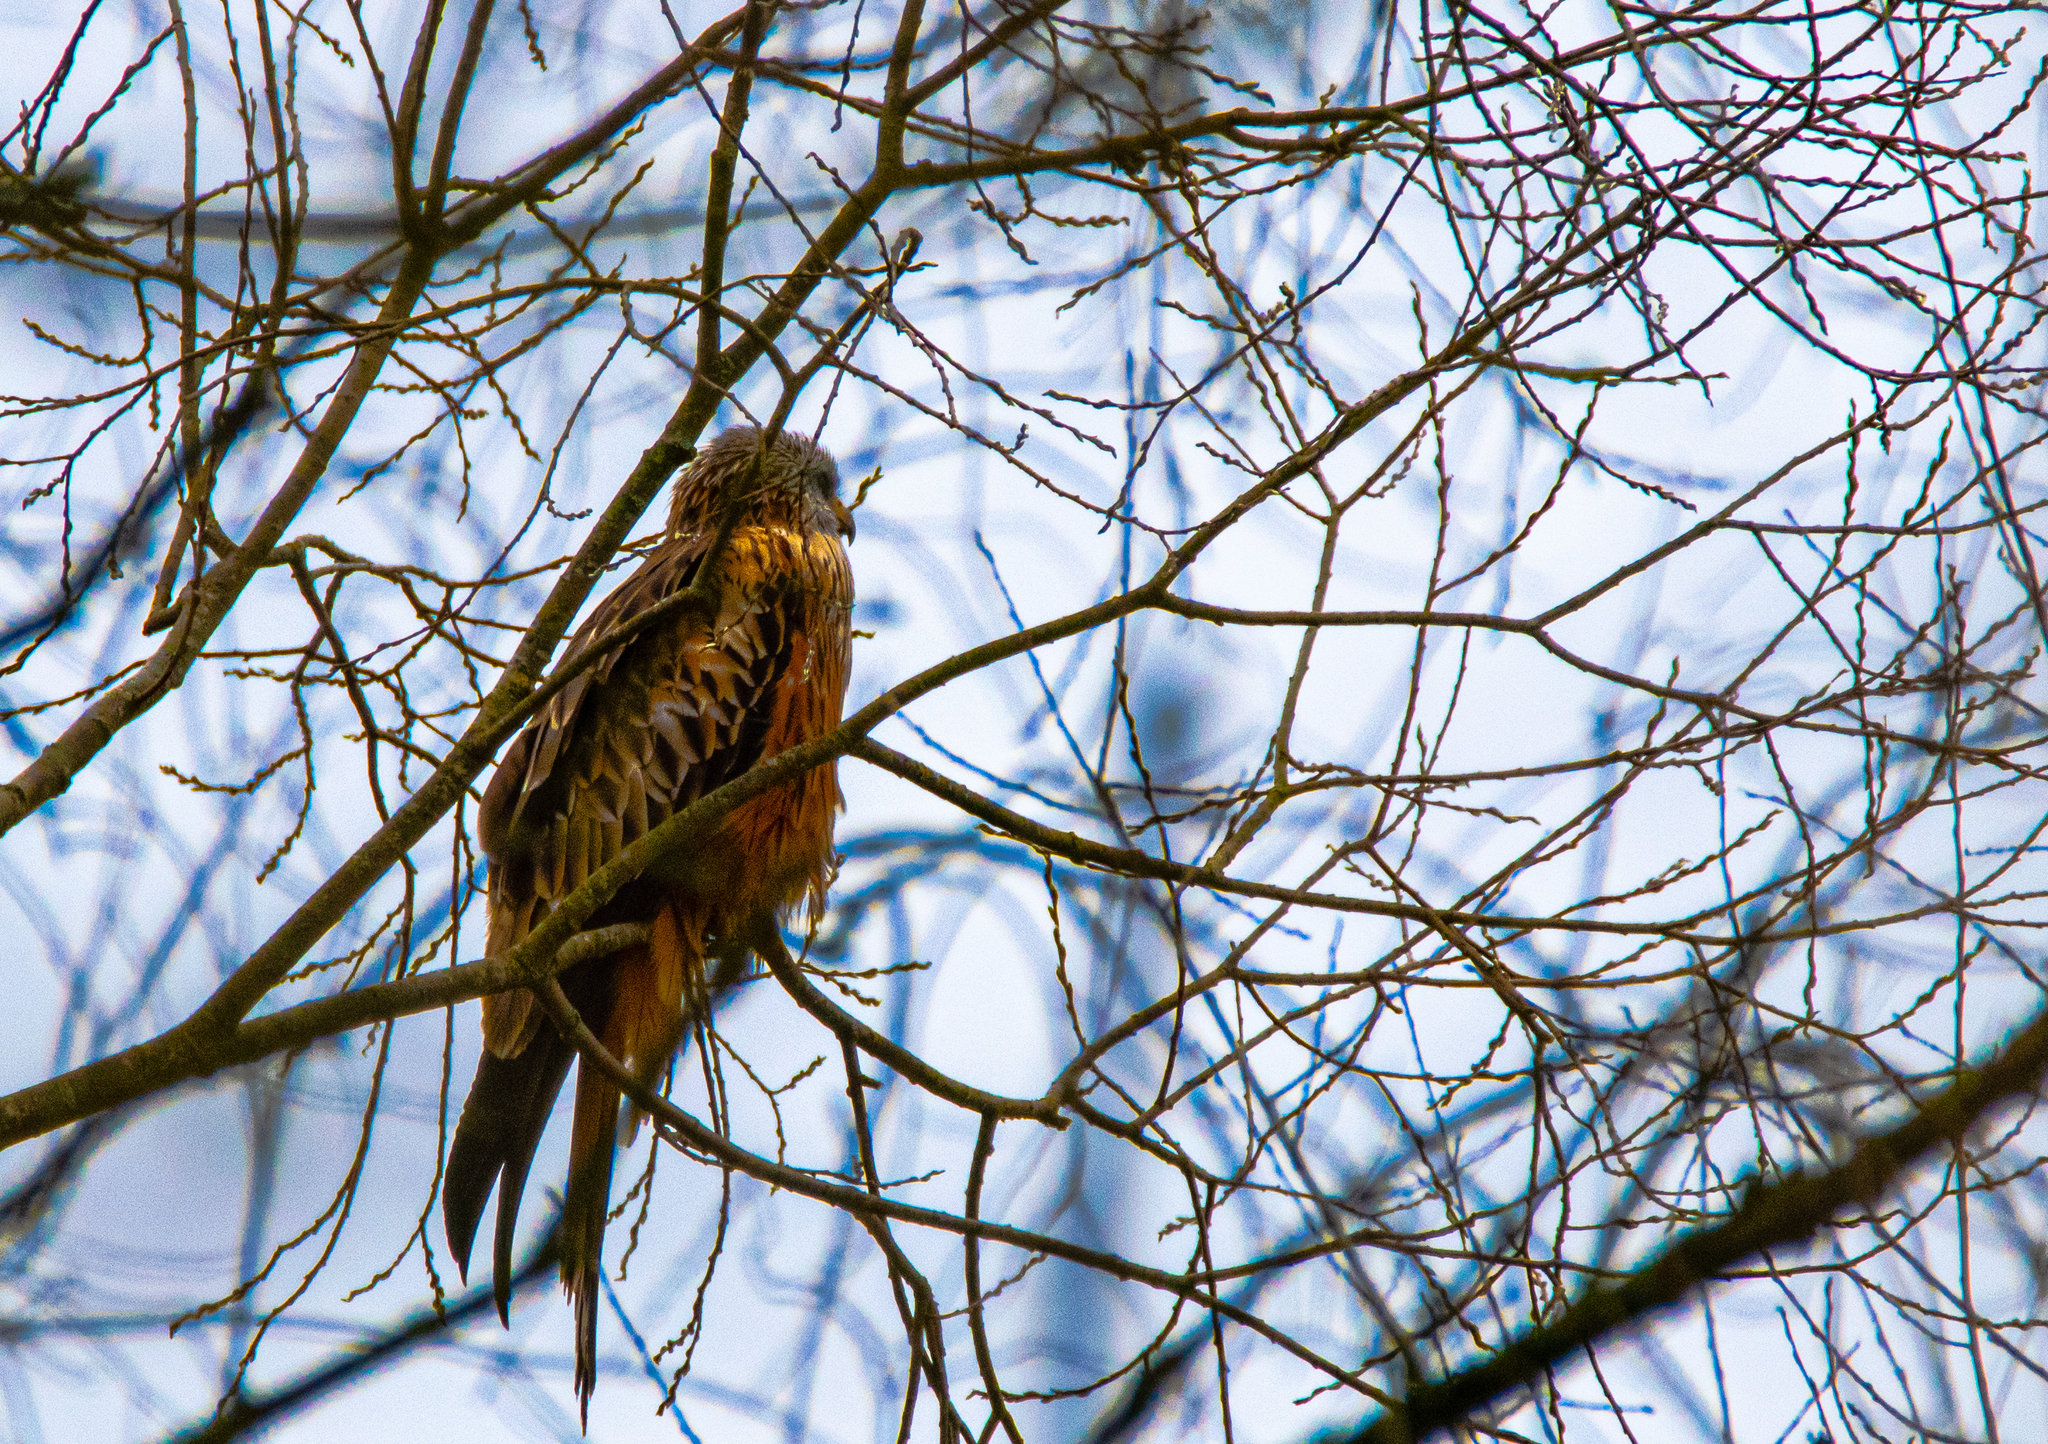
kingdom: Animalia
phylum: Chordata
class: Aves
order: Accipitriformes
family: Accipitridae
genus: Milvus
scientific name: Milvus milvus
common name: Red kite
